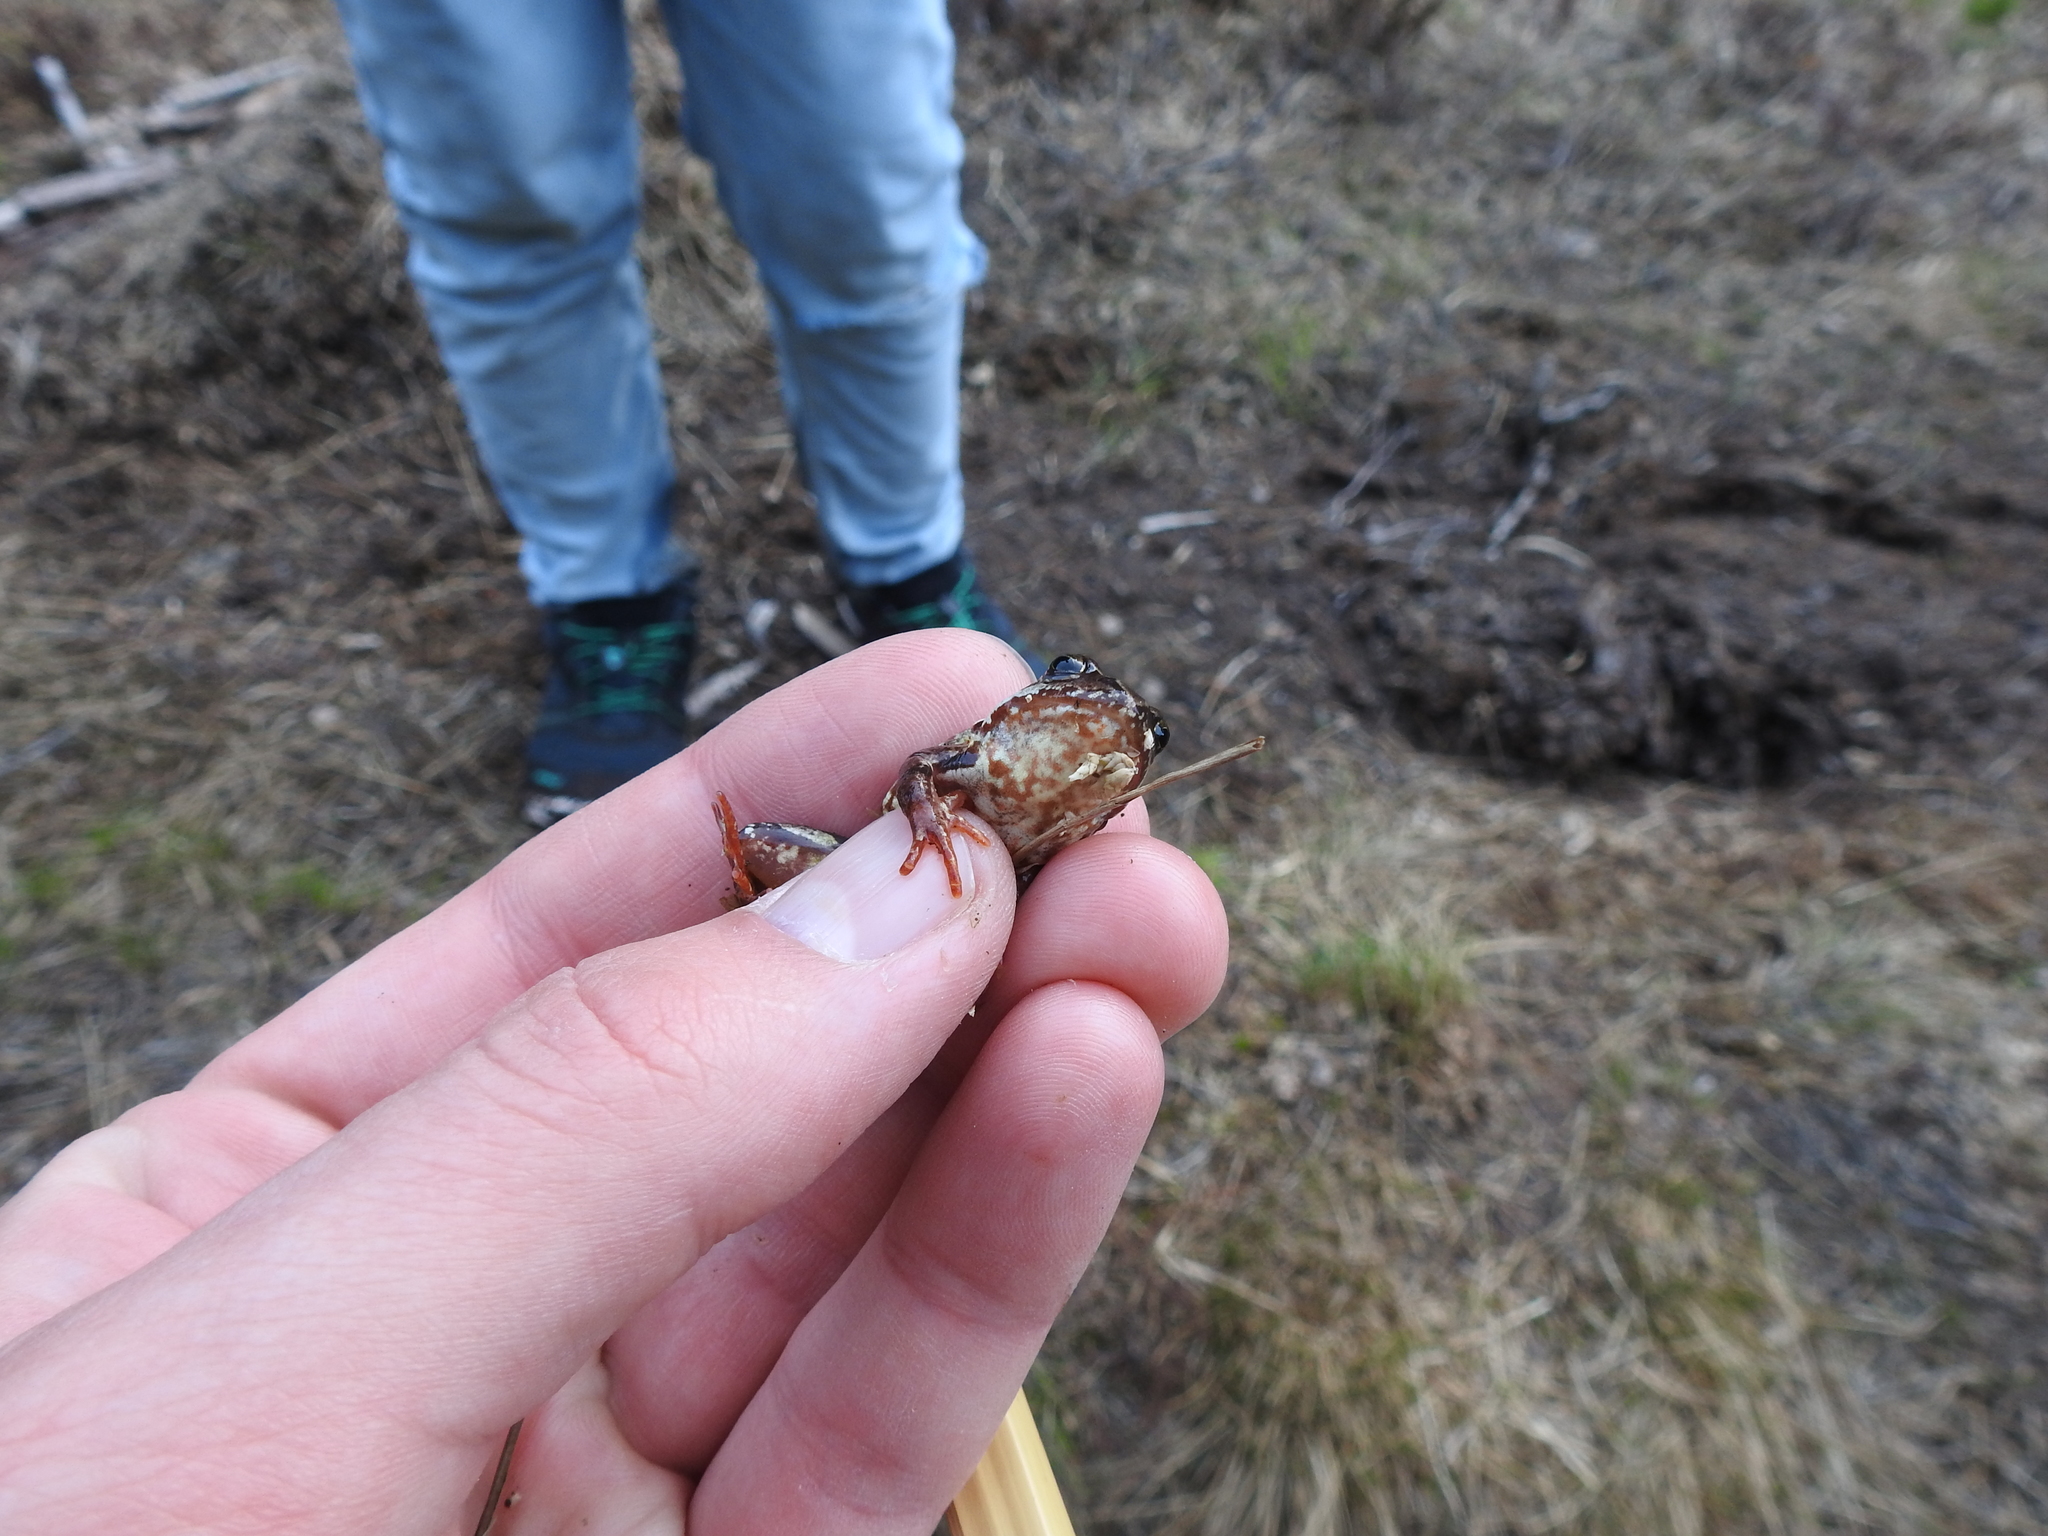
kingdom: Animalia
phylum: Chordata
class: Amphibia
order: Anura
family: Ranidae
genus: Rana
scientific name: Rana temporaria
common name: Common frog
